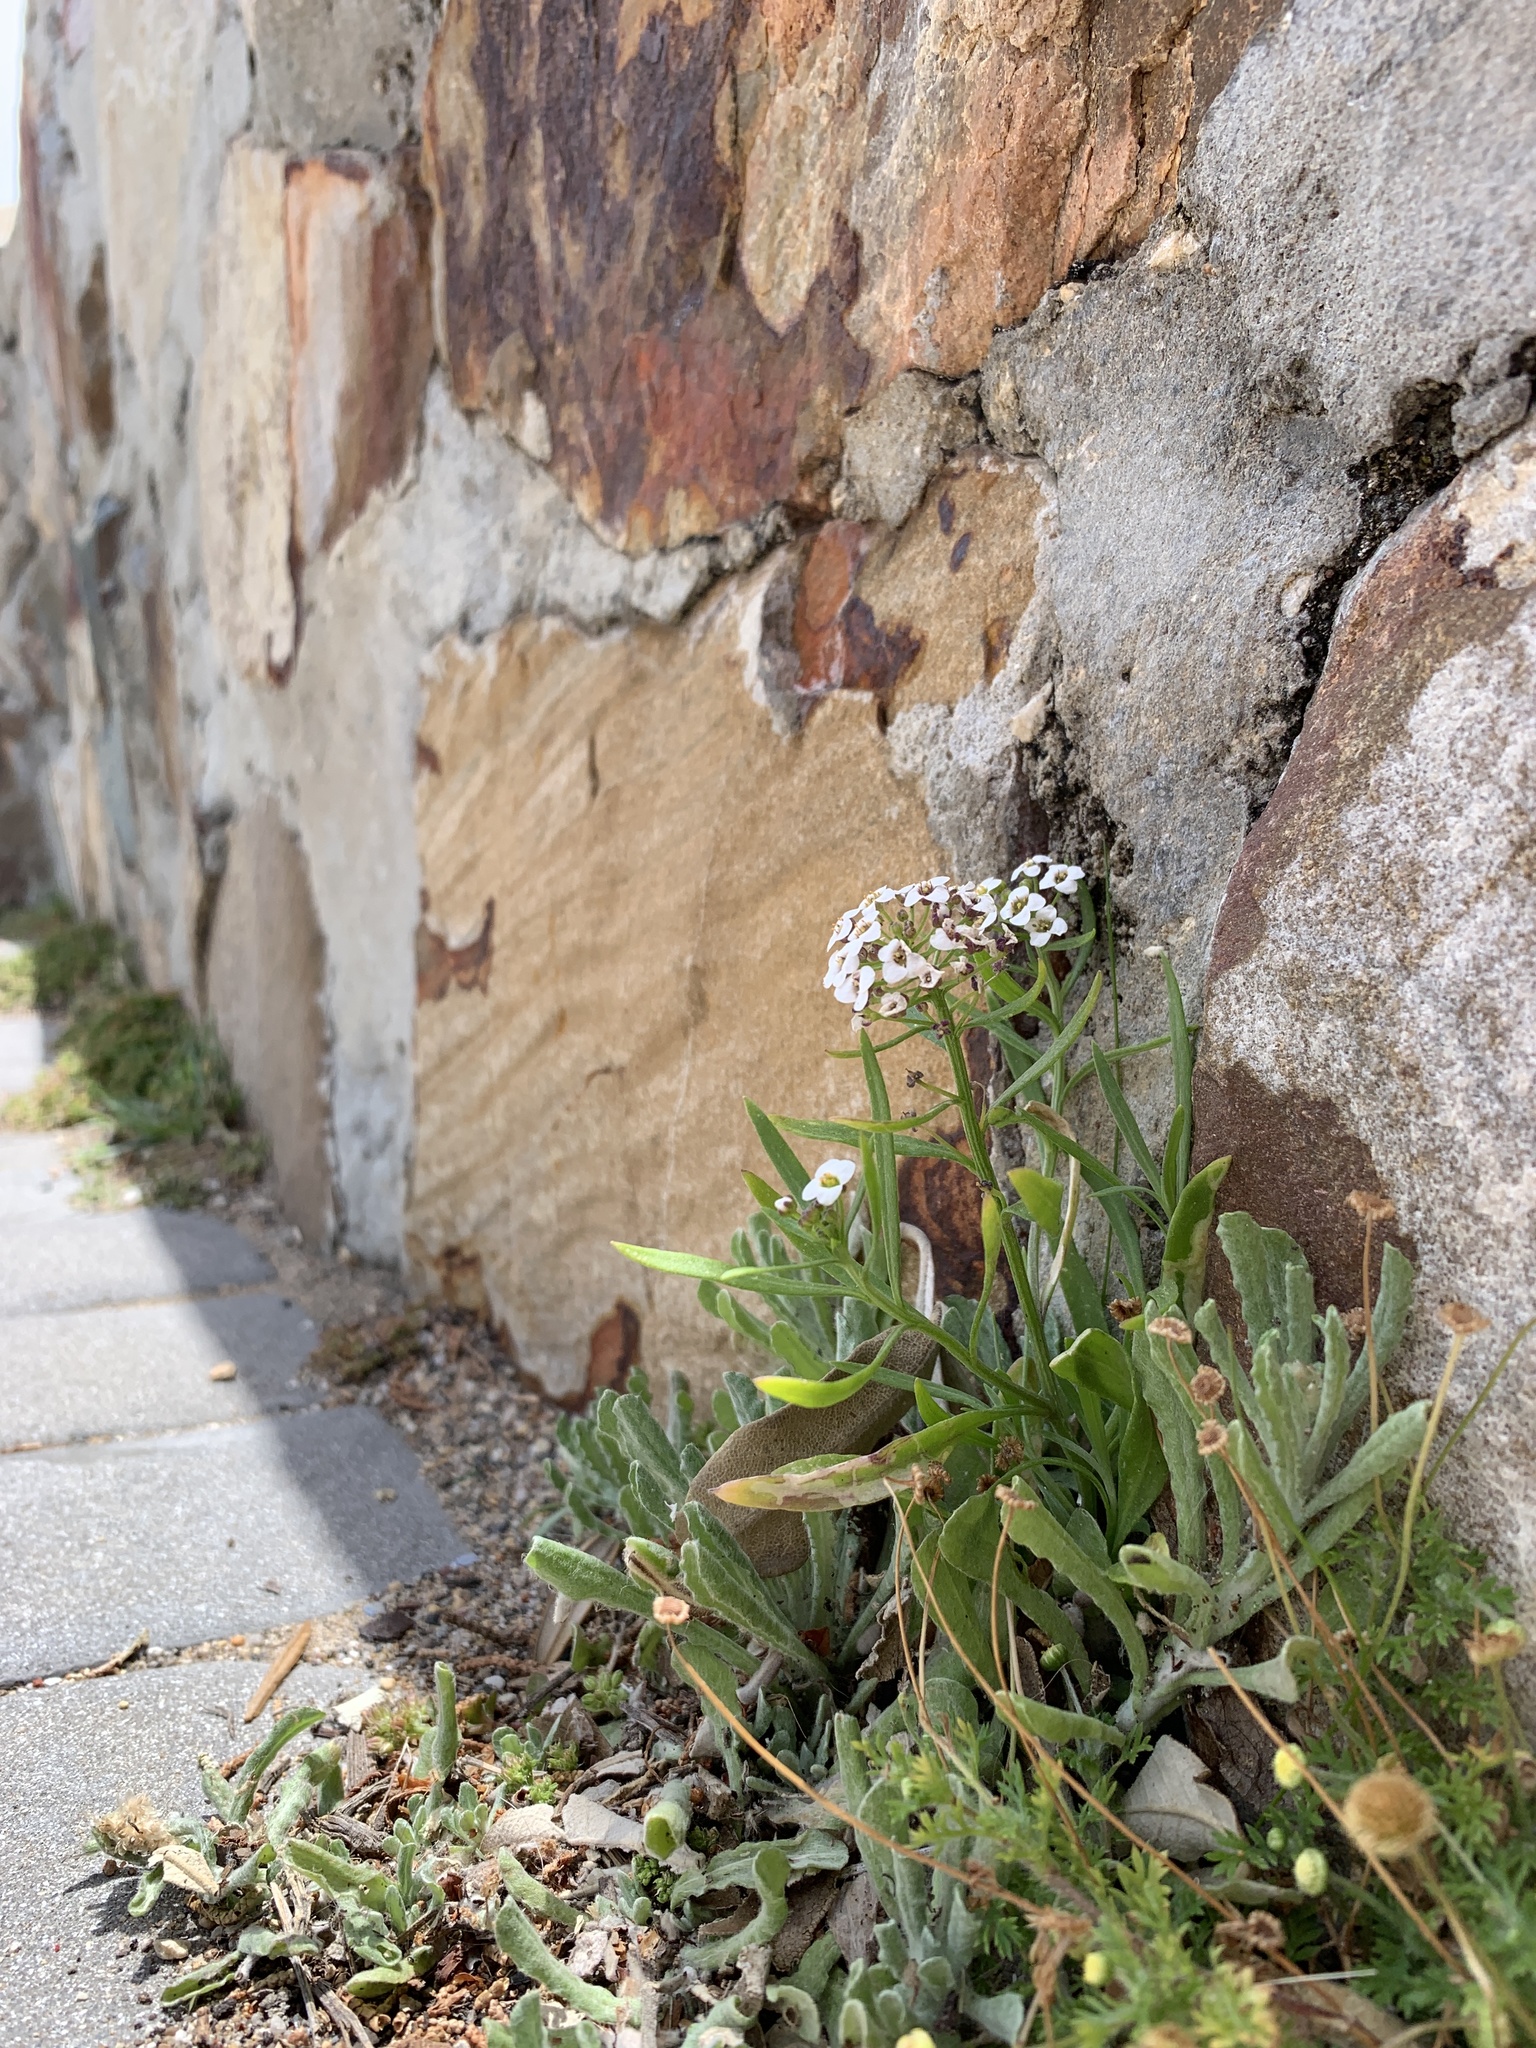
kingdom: Plantae
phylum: Tracheophyta
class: Magnoliopsida
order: Brassicales
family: Brassicaceae
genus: Lobularia
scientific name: Lobularia maritima
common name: Sweet alison
